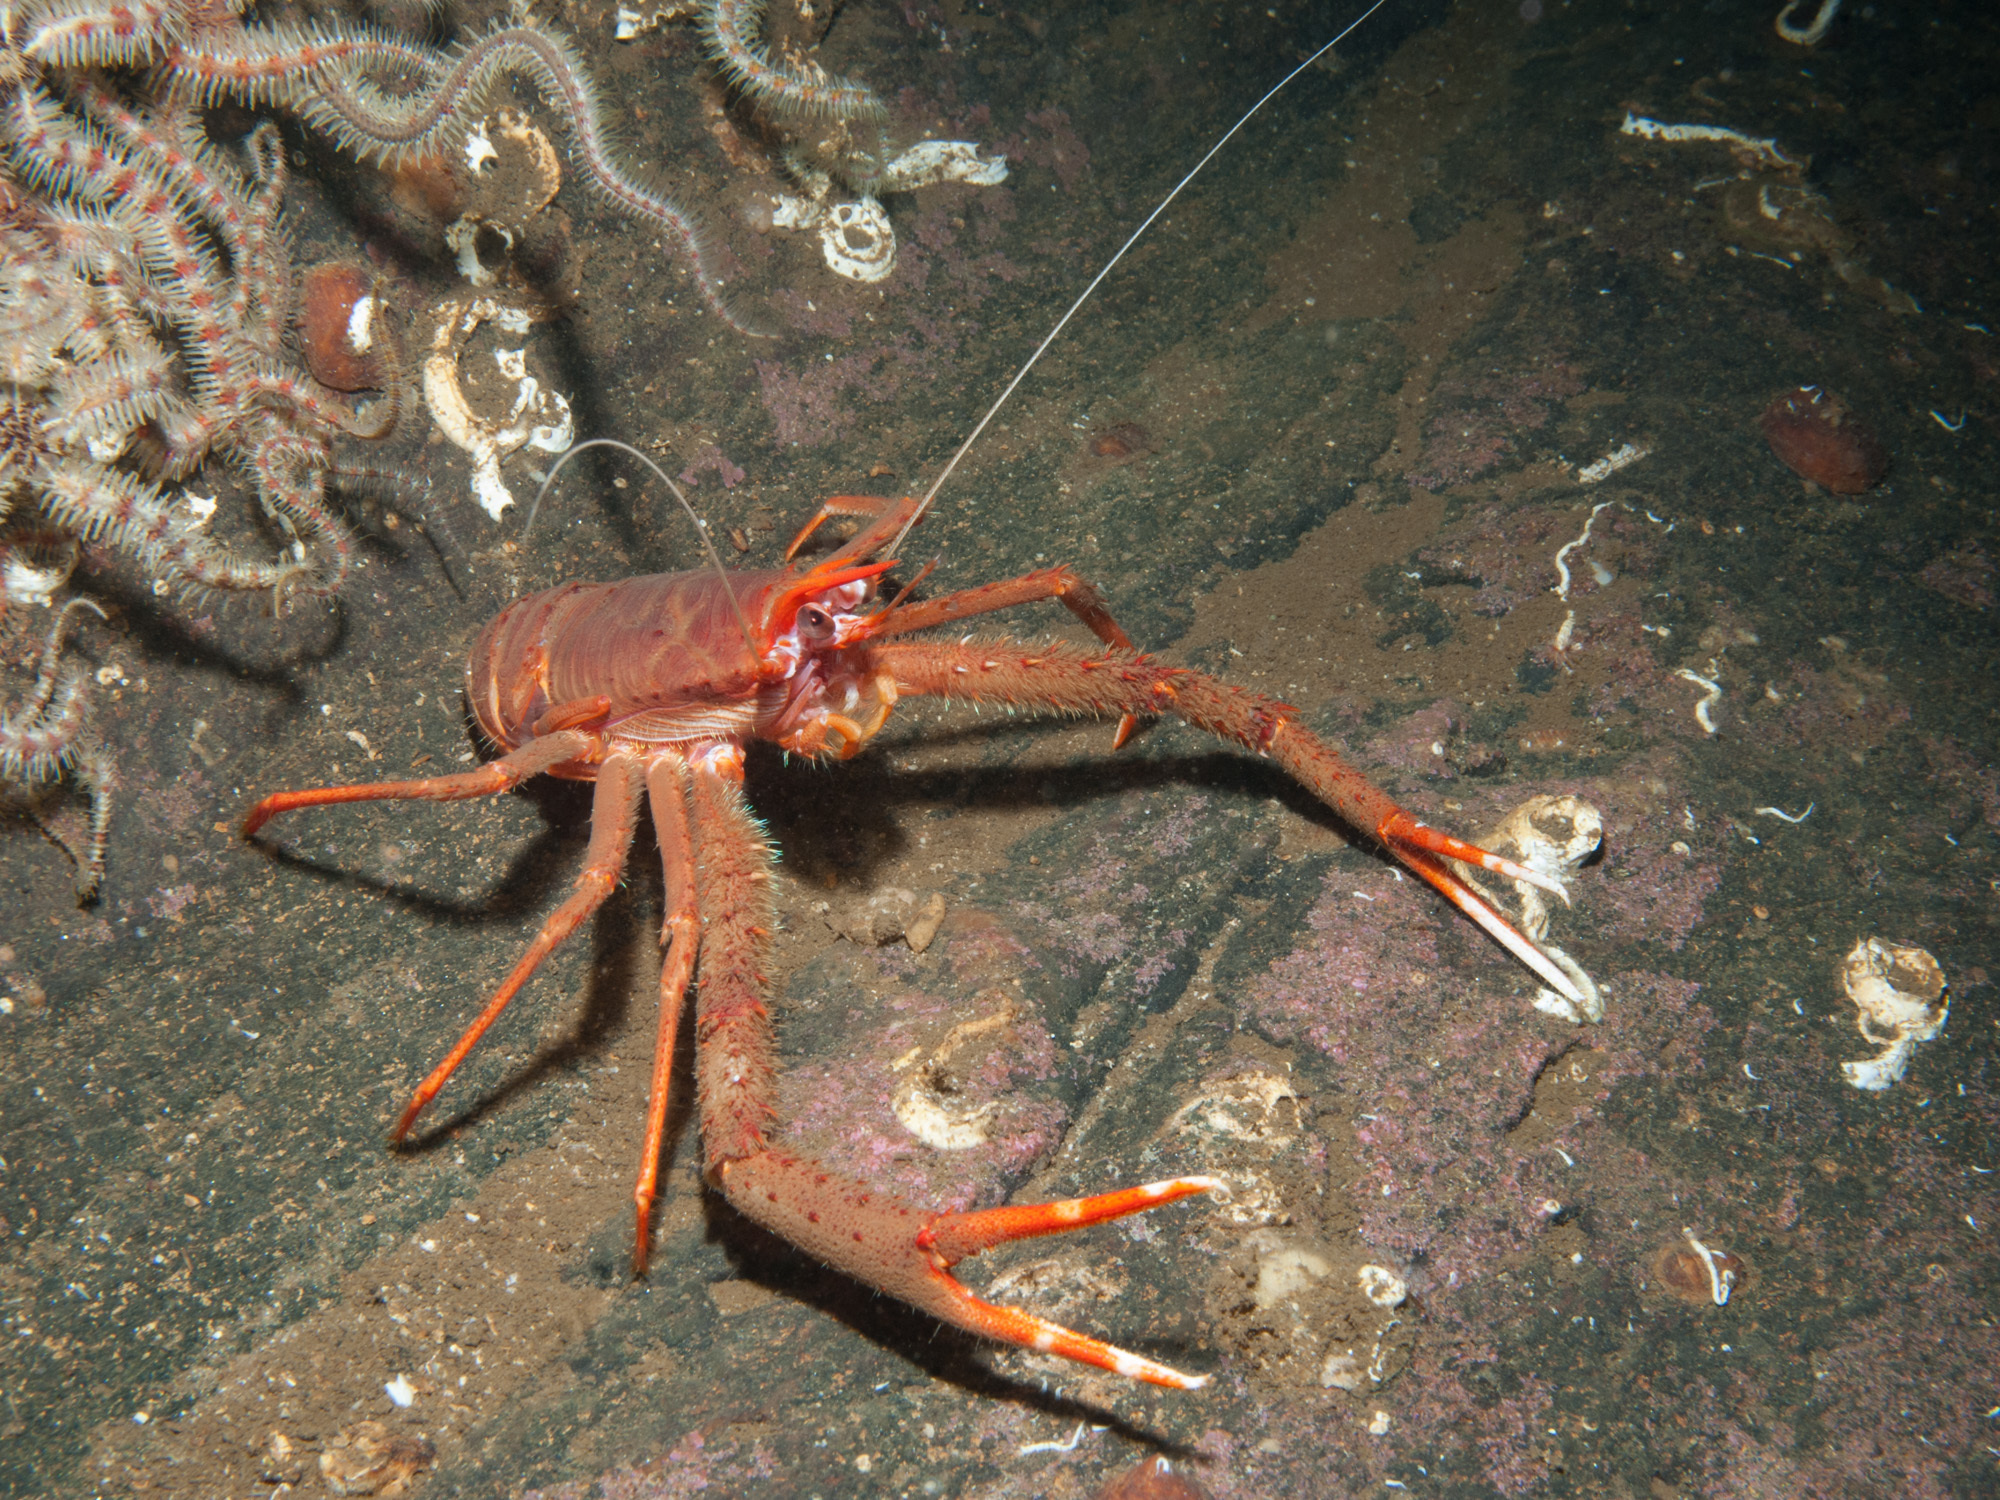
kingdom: Animalia
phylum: Arthropoda
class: Malacostraca
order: Decapoda
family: Munididae
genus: Munida
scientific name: Munida rugosa
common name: Rugose squat lobster
